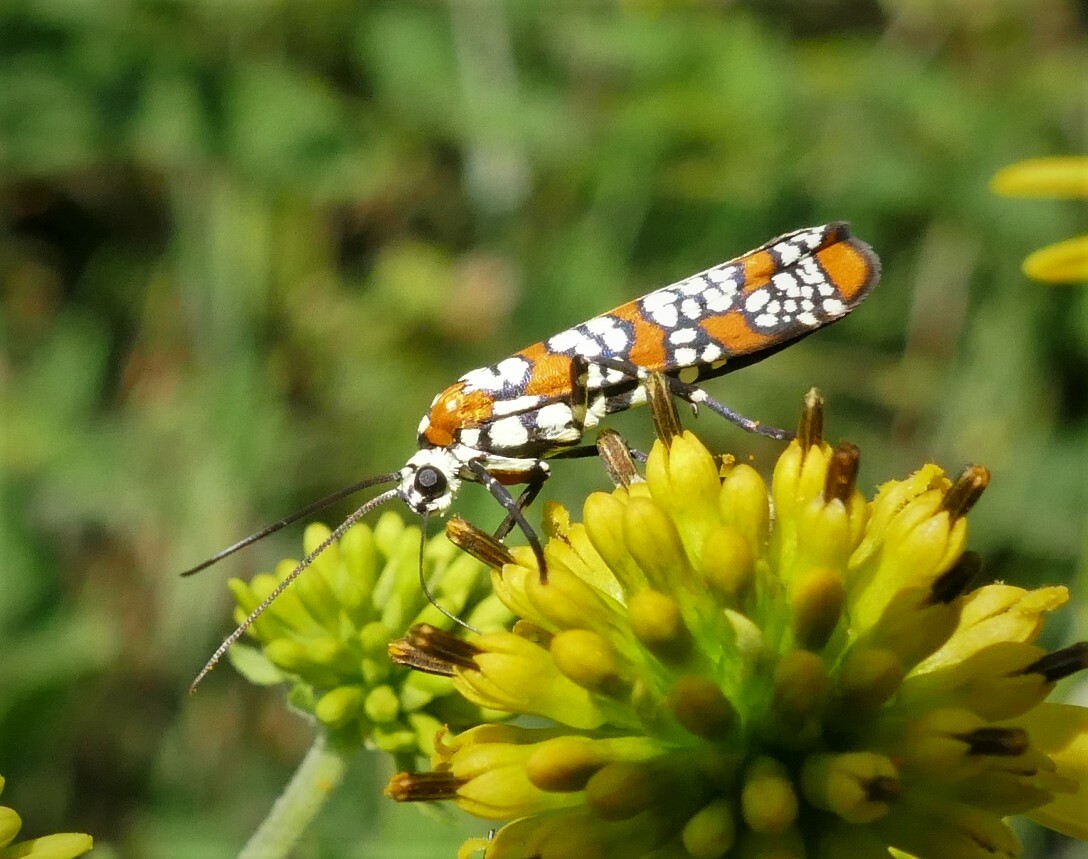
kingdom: Animalia
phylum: Arthropoda
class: Insecta
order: Lepidoptera
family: Attevidae
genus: Atteva
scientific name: Atteva punctella
